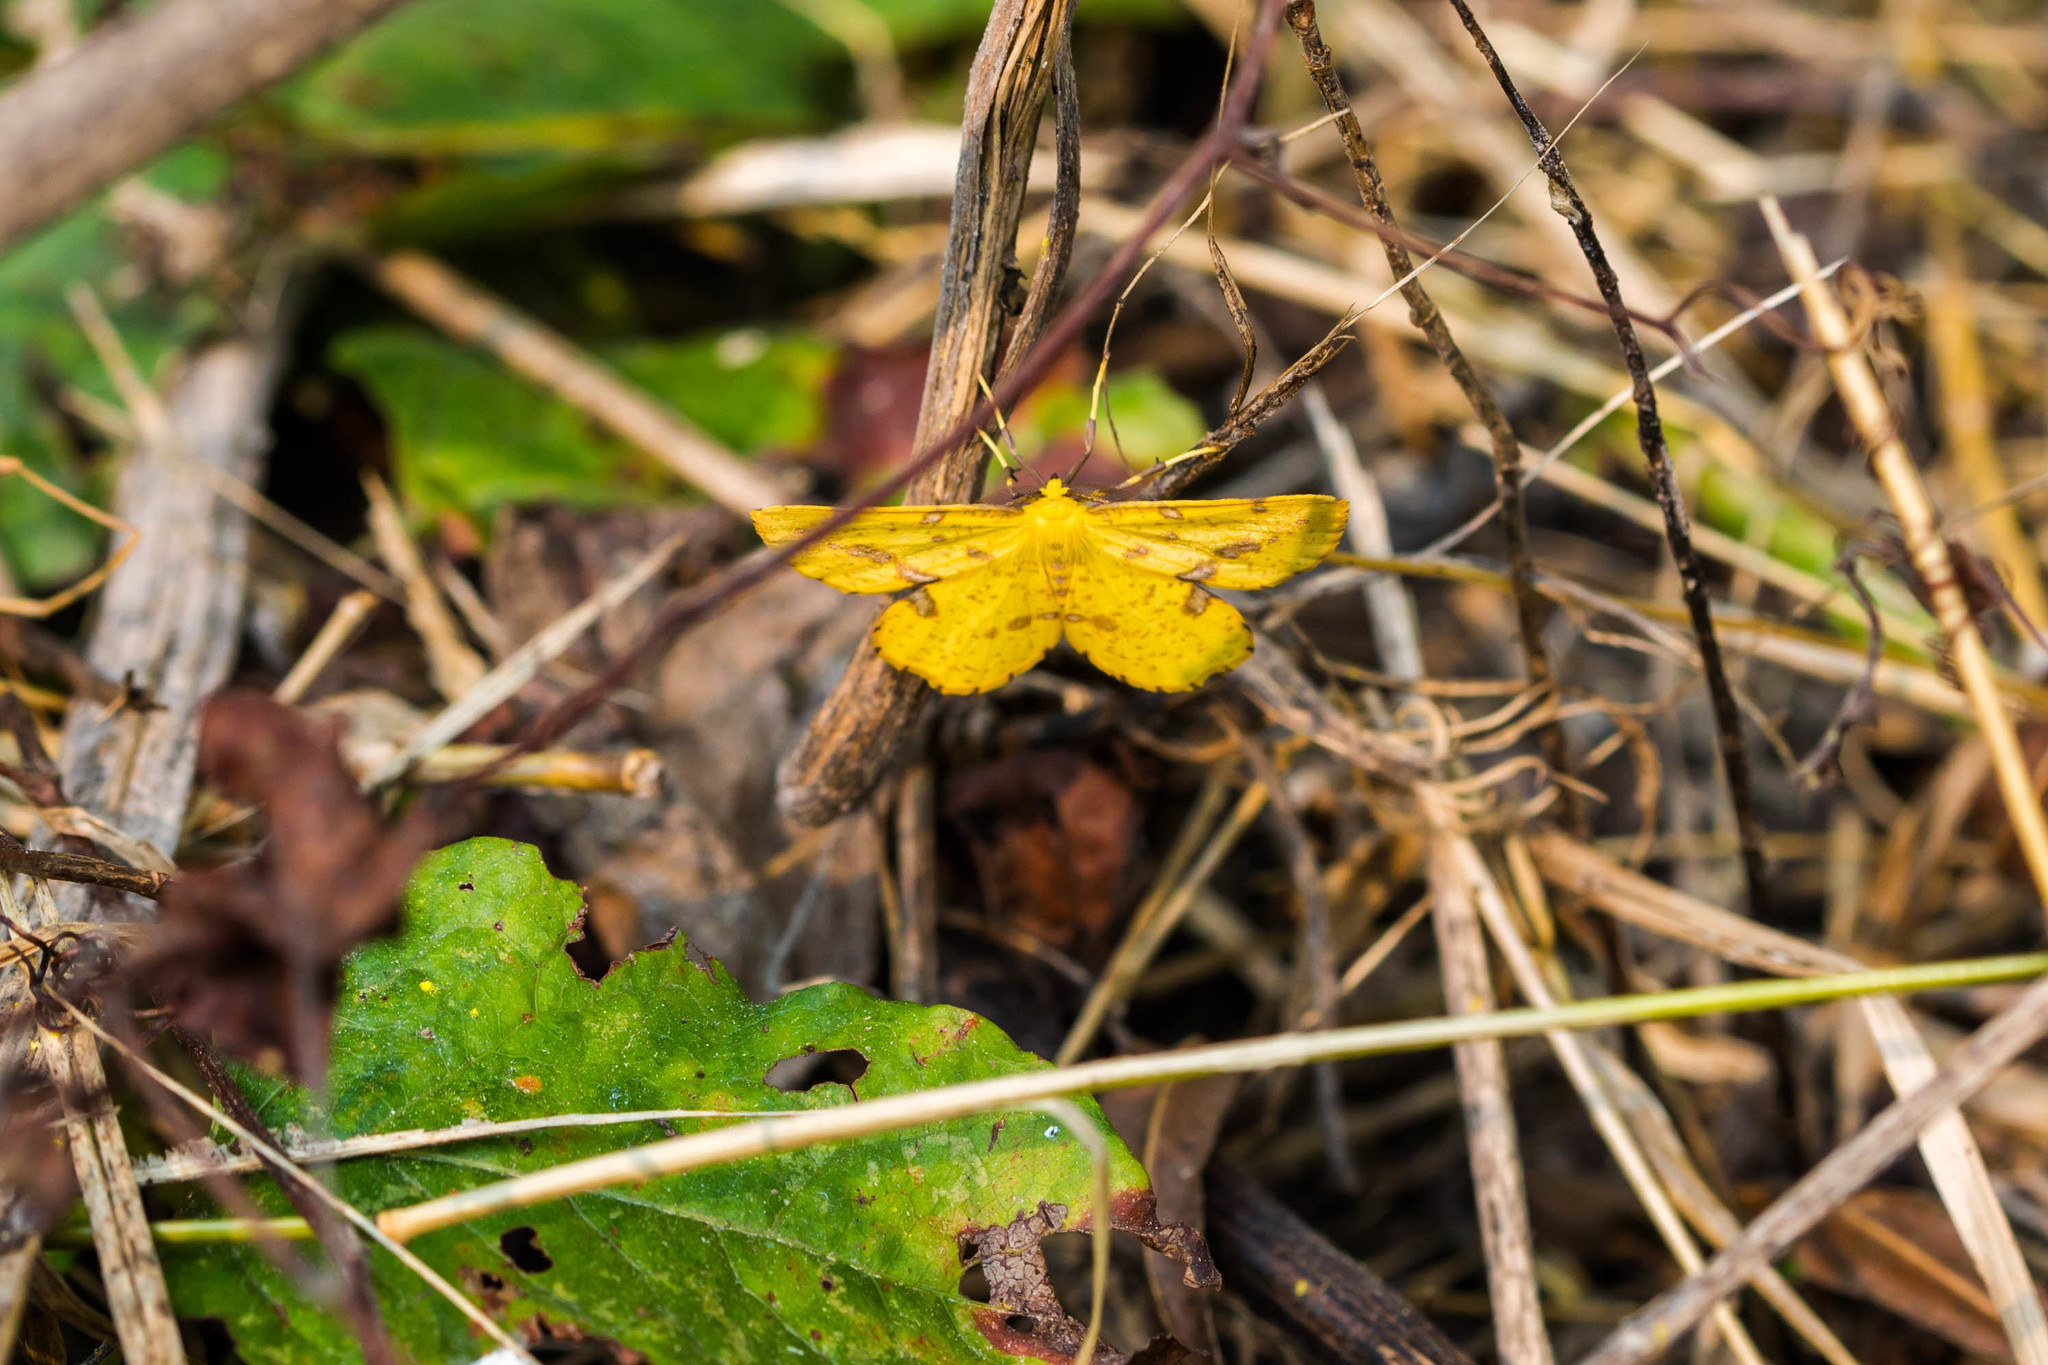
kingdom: Animalia
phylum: Arthropoda
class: Insecta
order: Lepidoptera
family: Geometridae
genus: Xanthotype
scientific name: Xanthotype
